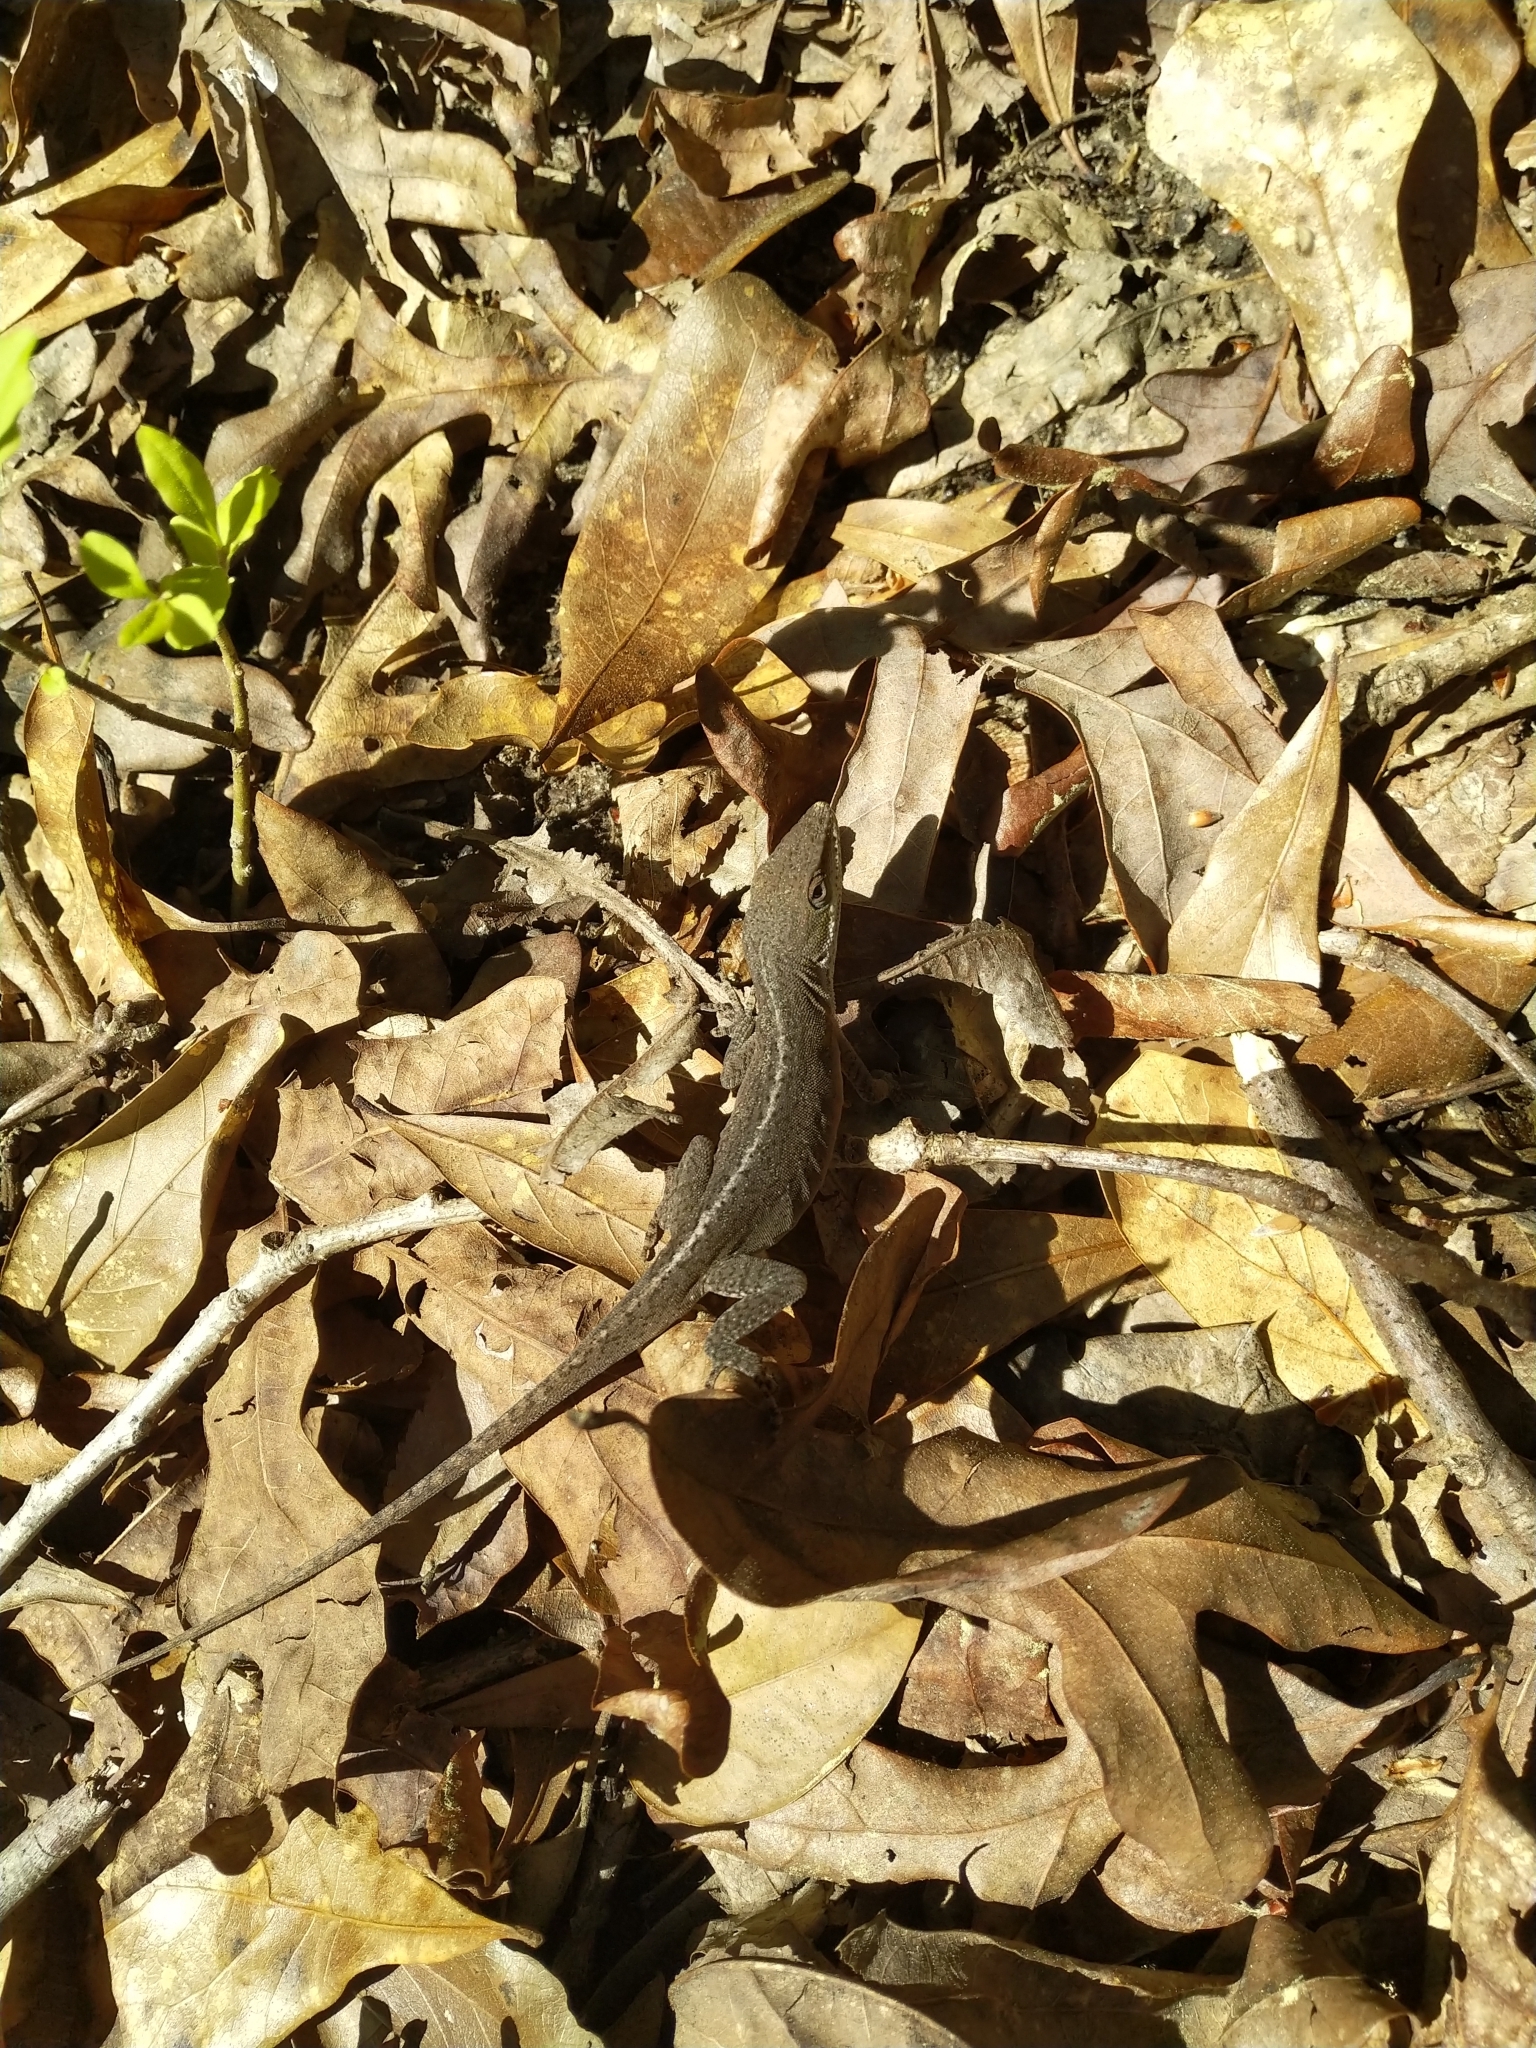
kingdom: Animalia
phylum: Chordata
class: Squamata
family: Dactyloidae
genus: Anolis
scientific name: Anolis carolinensis
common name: Green anole
